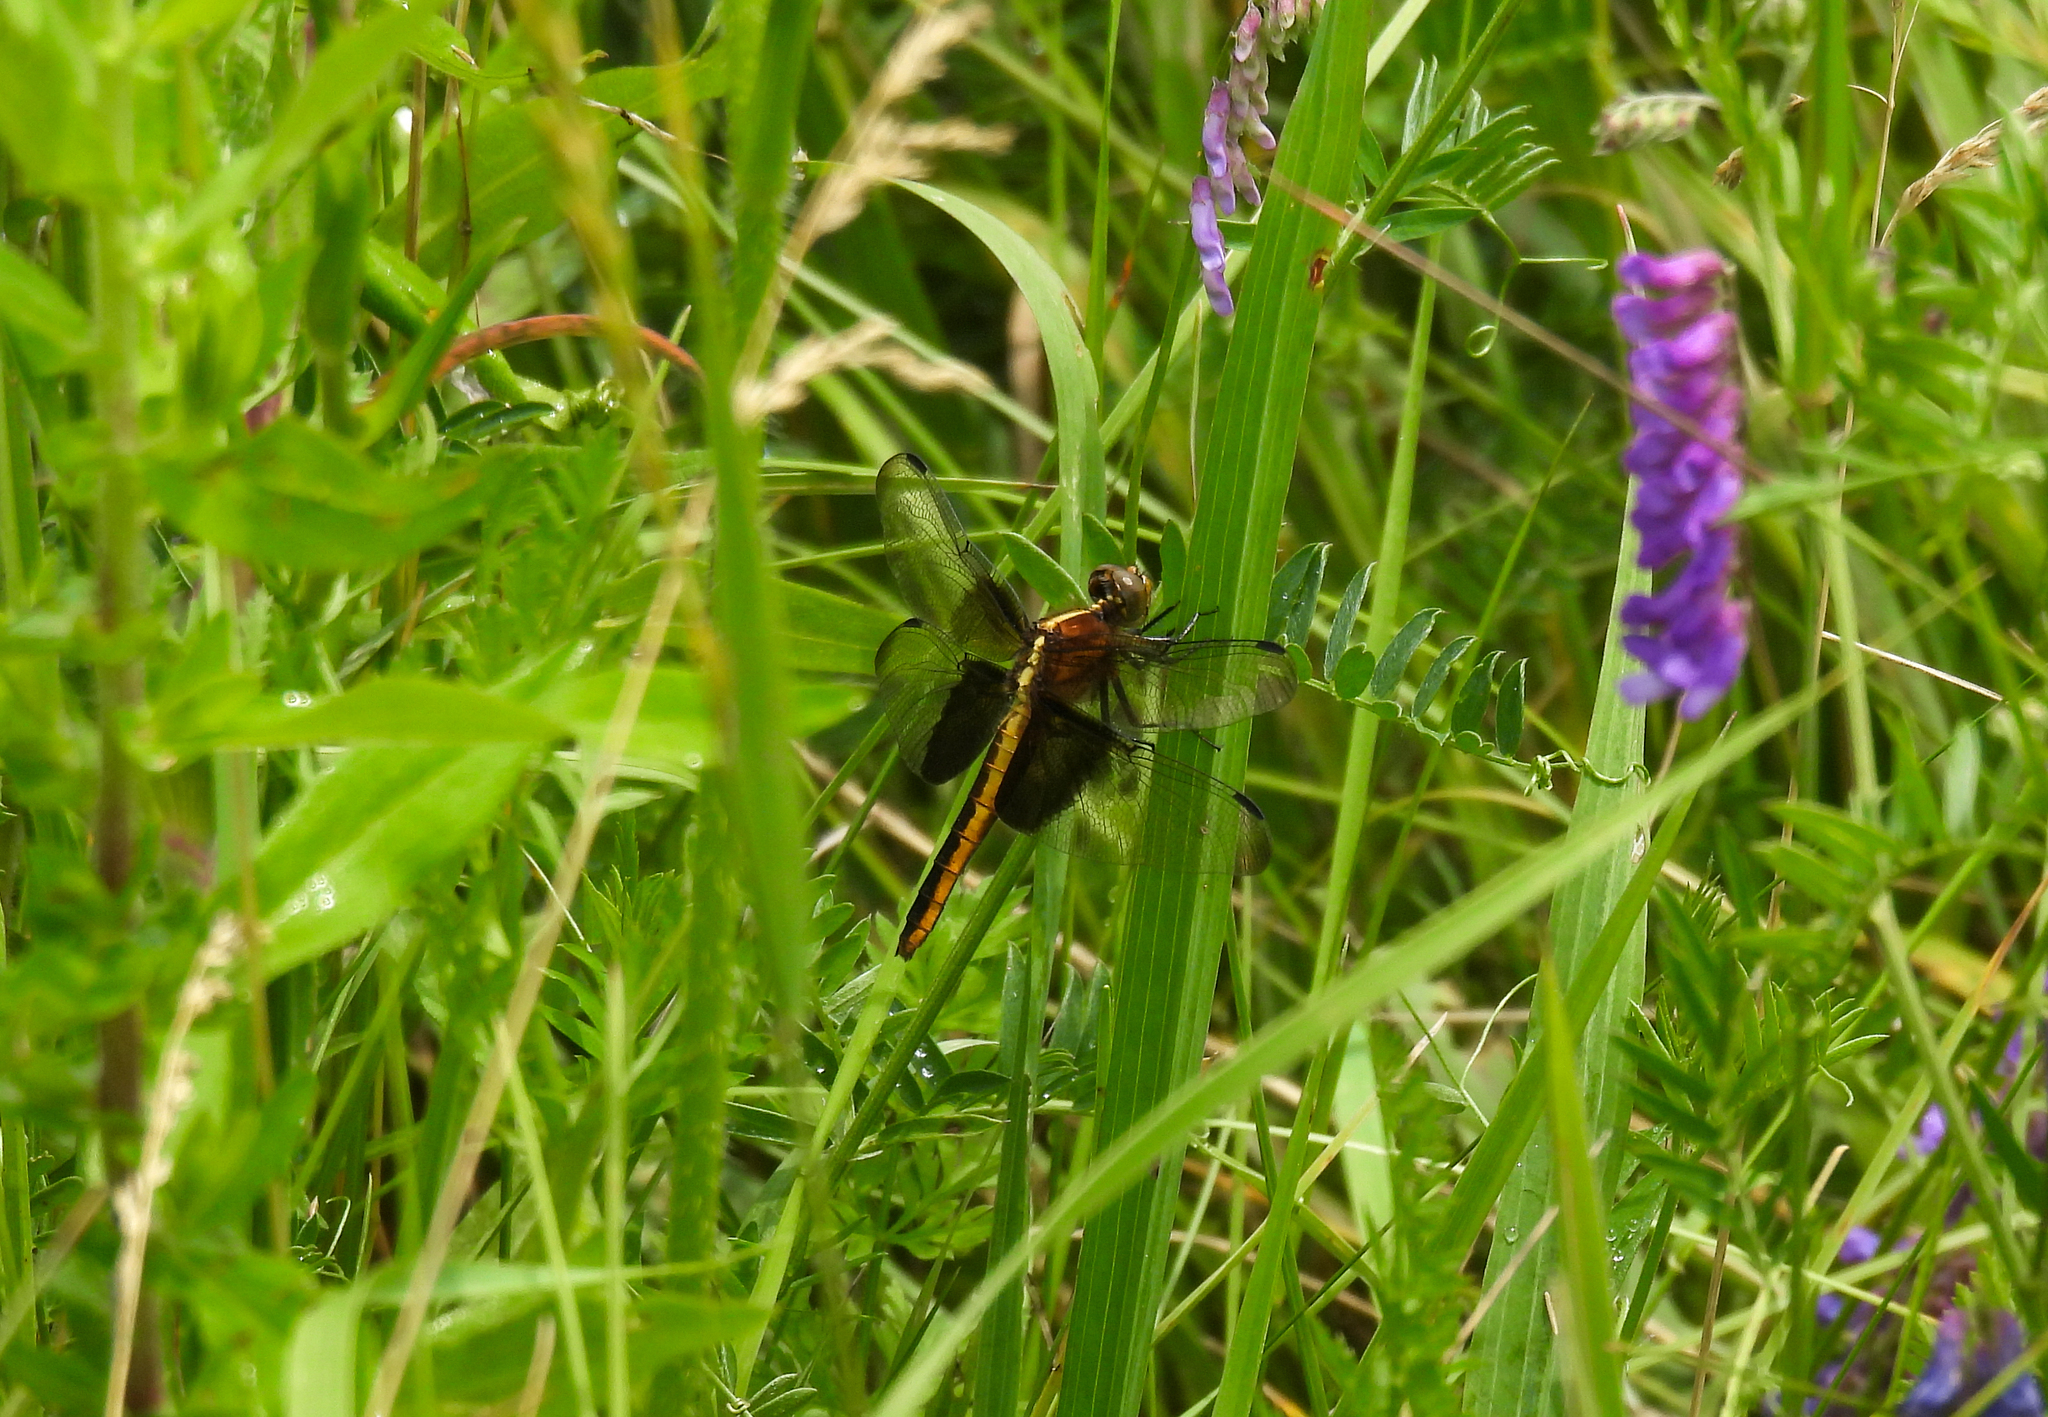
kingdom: Animalia
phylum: Arthropoda
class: Insecta
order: Odonata
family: Libellulidae
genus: Libellula
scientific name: Libellula luctuosa
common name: Widow skimmer
